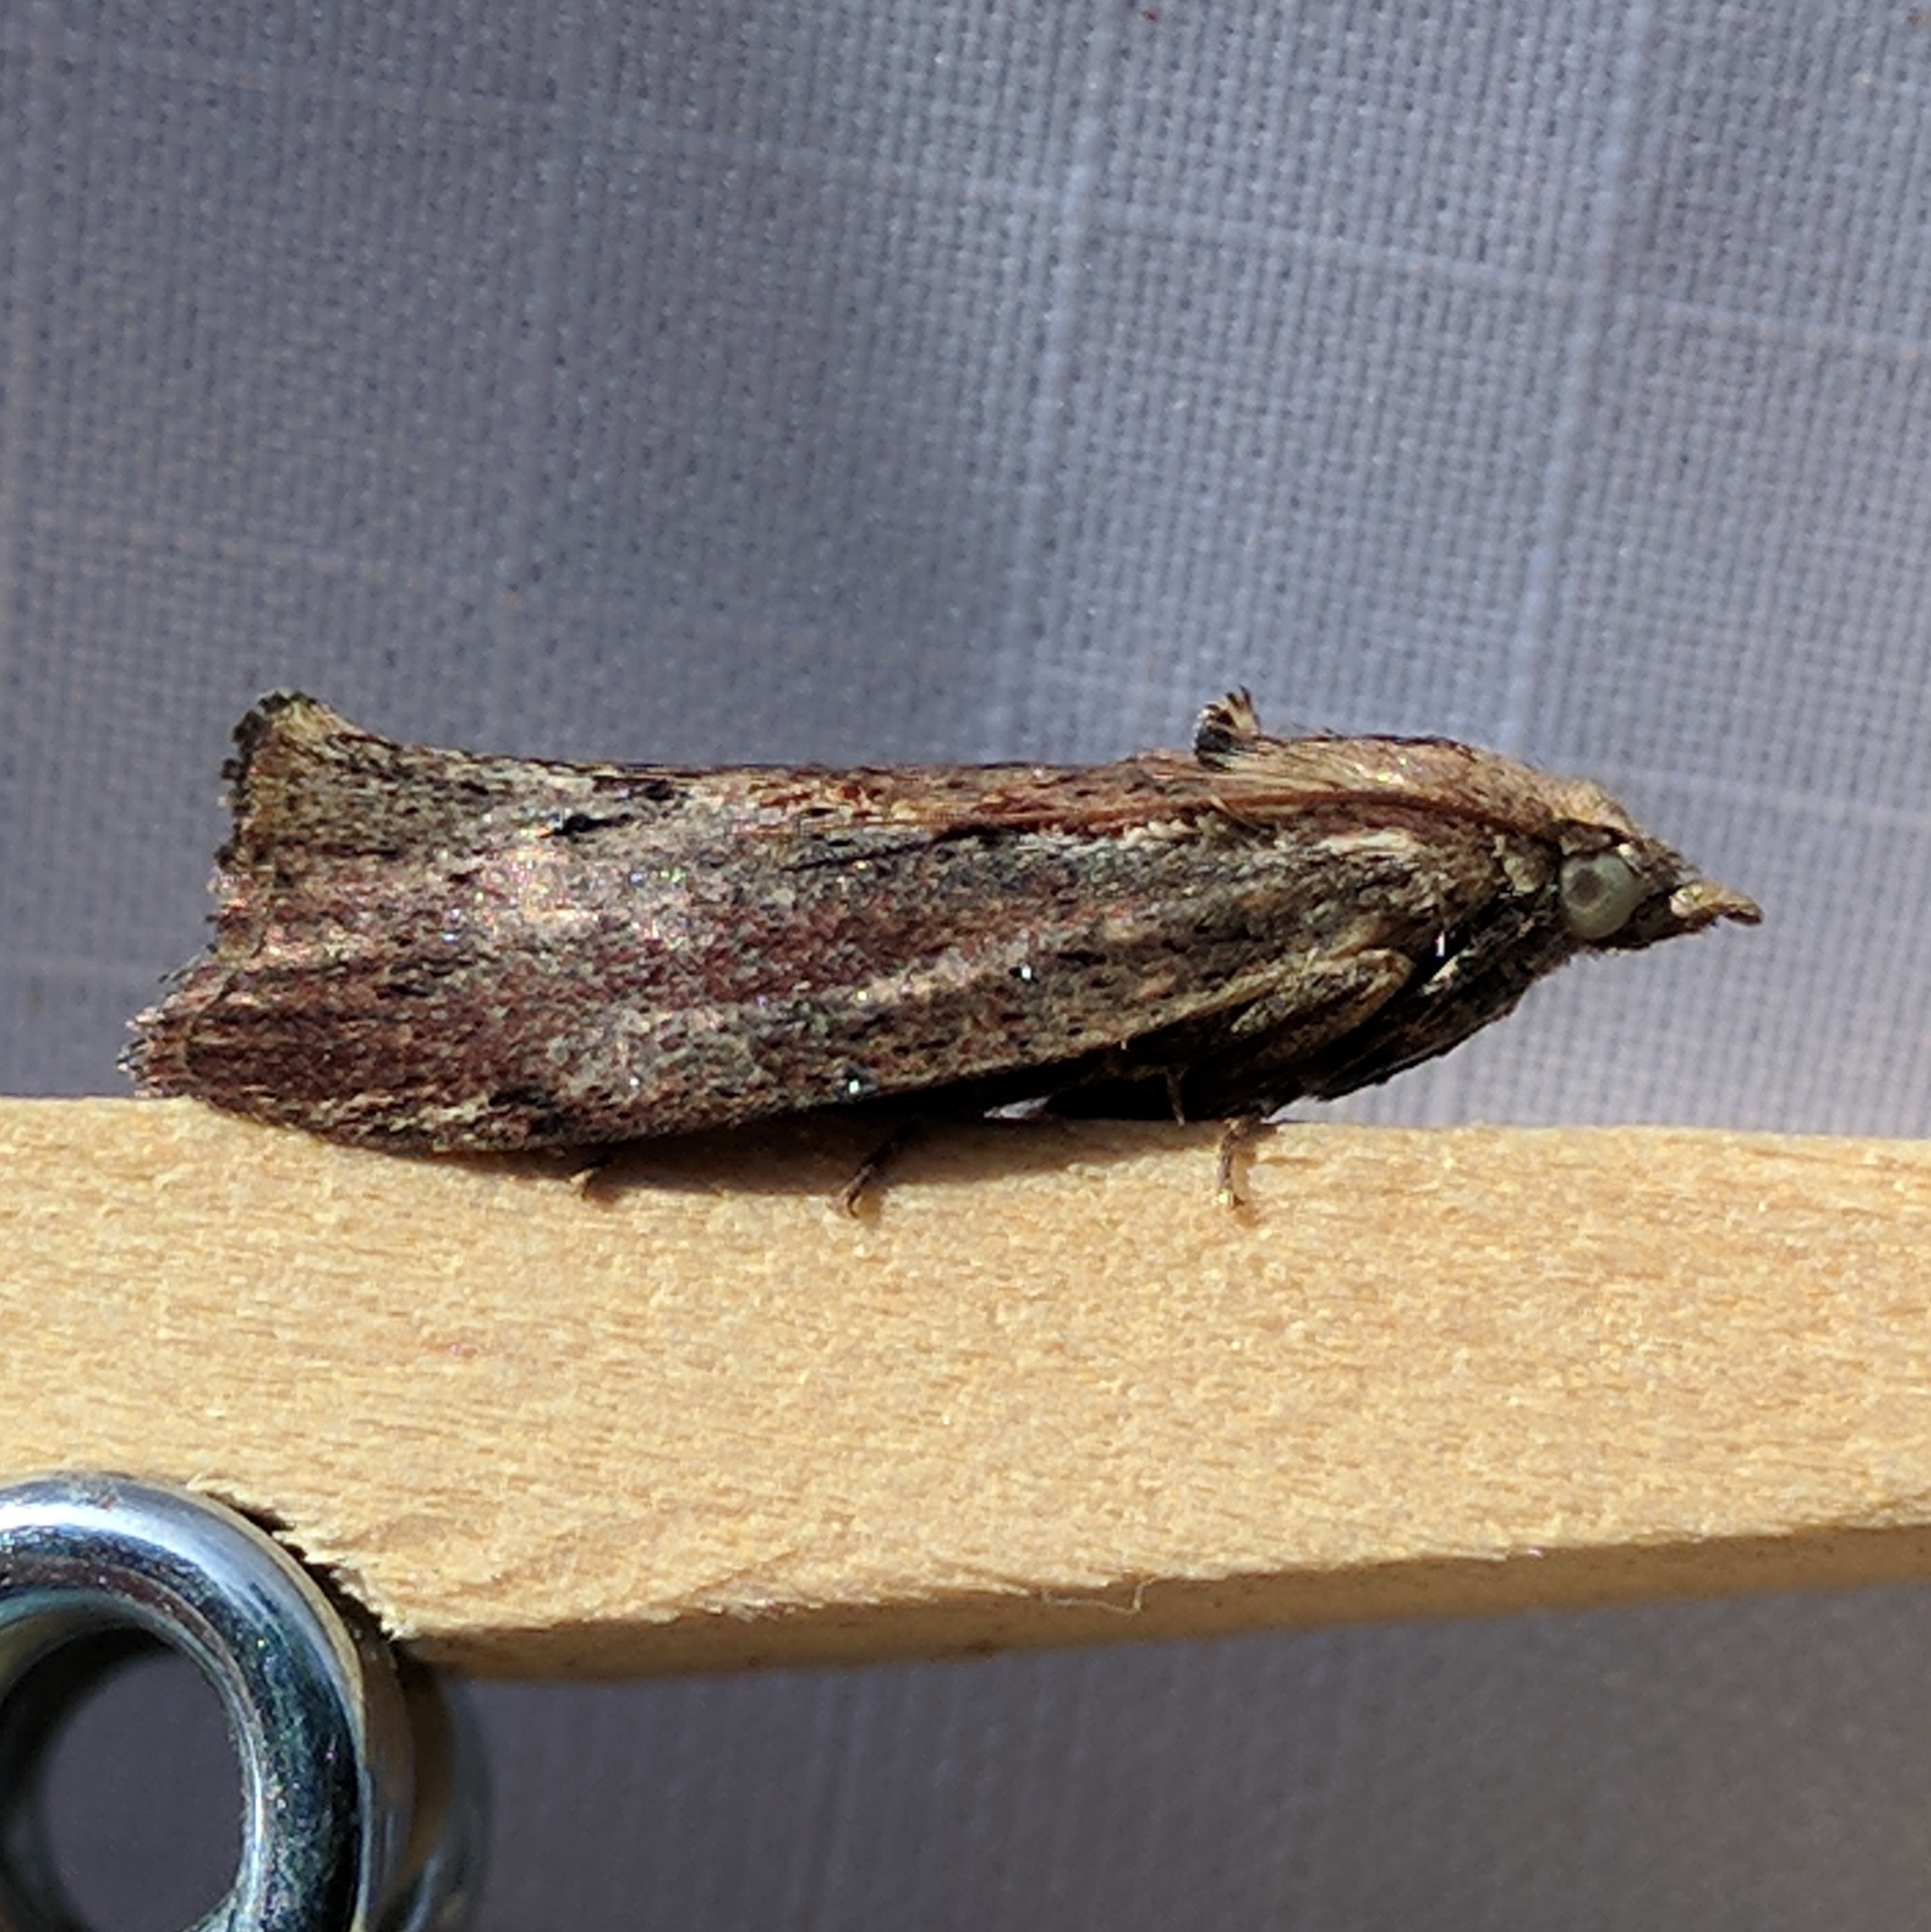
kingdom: Animalia
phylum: Arthropoda
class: Insecta
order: Lepidoptera
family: Pyralidae
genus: Galleria
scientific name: Galleria mellonella
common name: Greater wax moth
